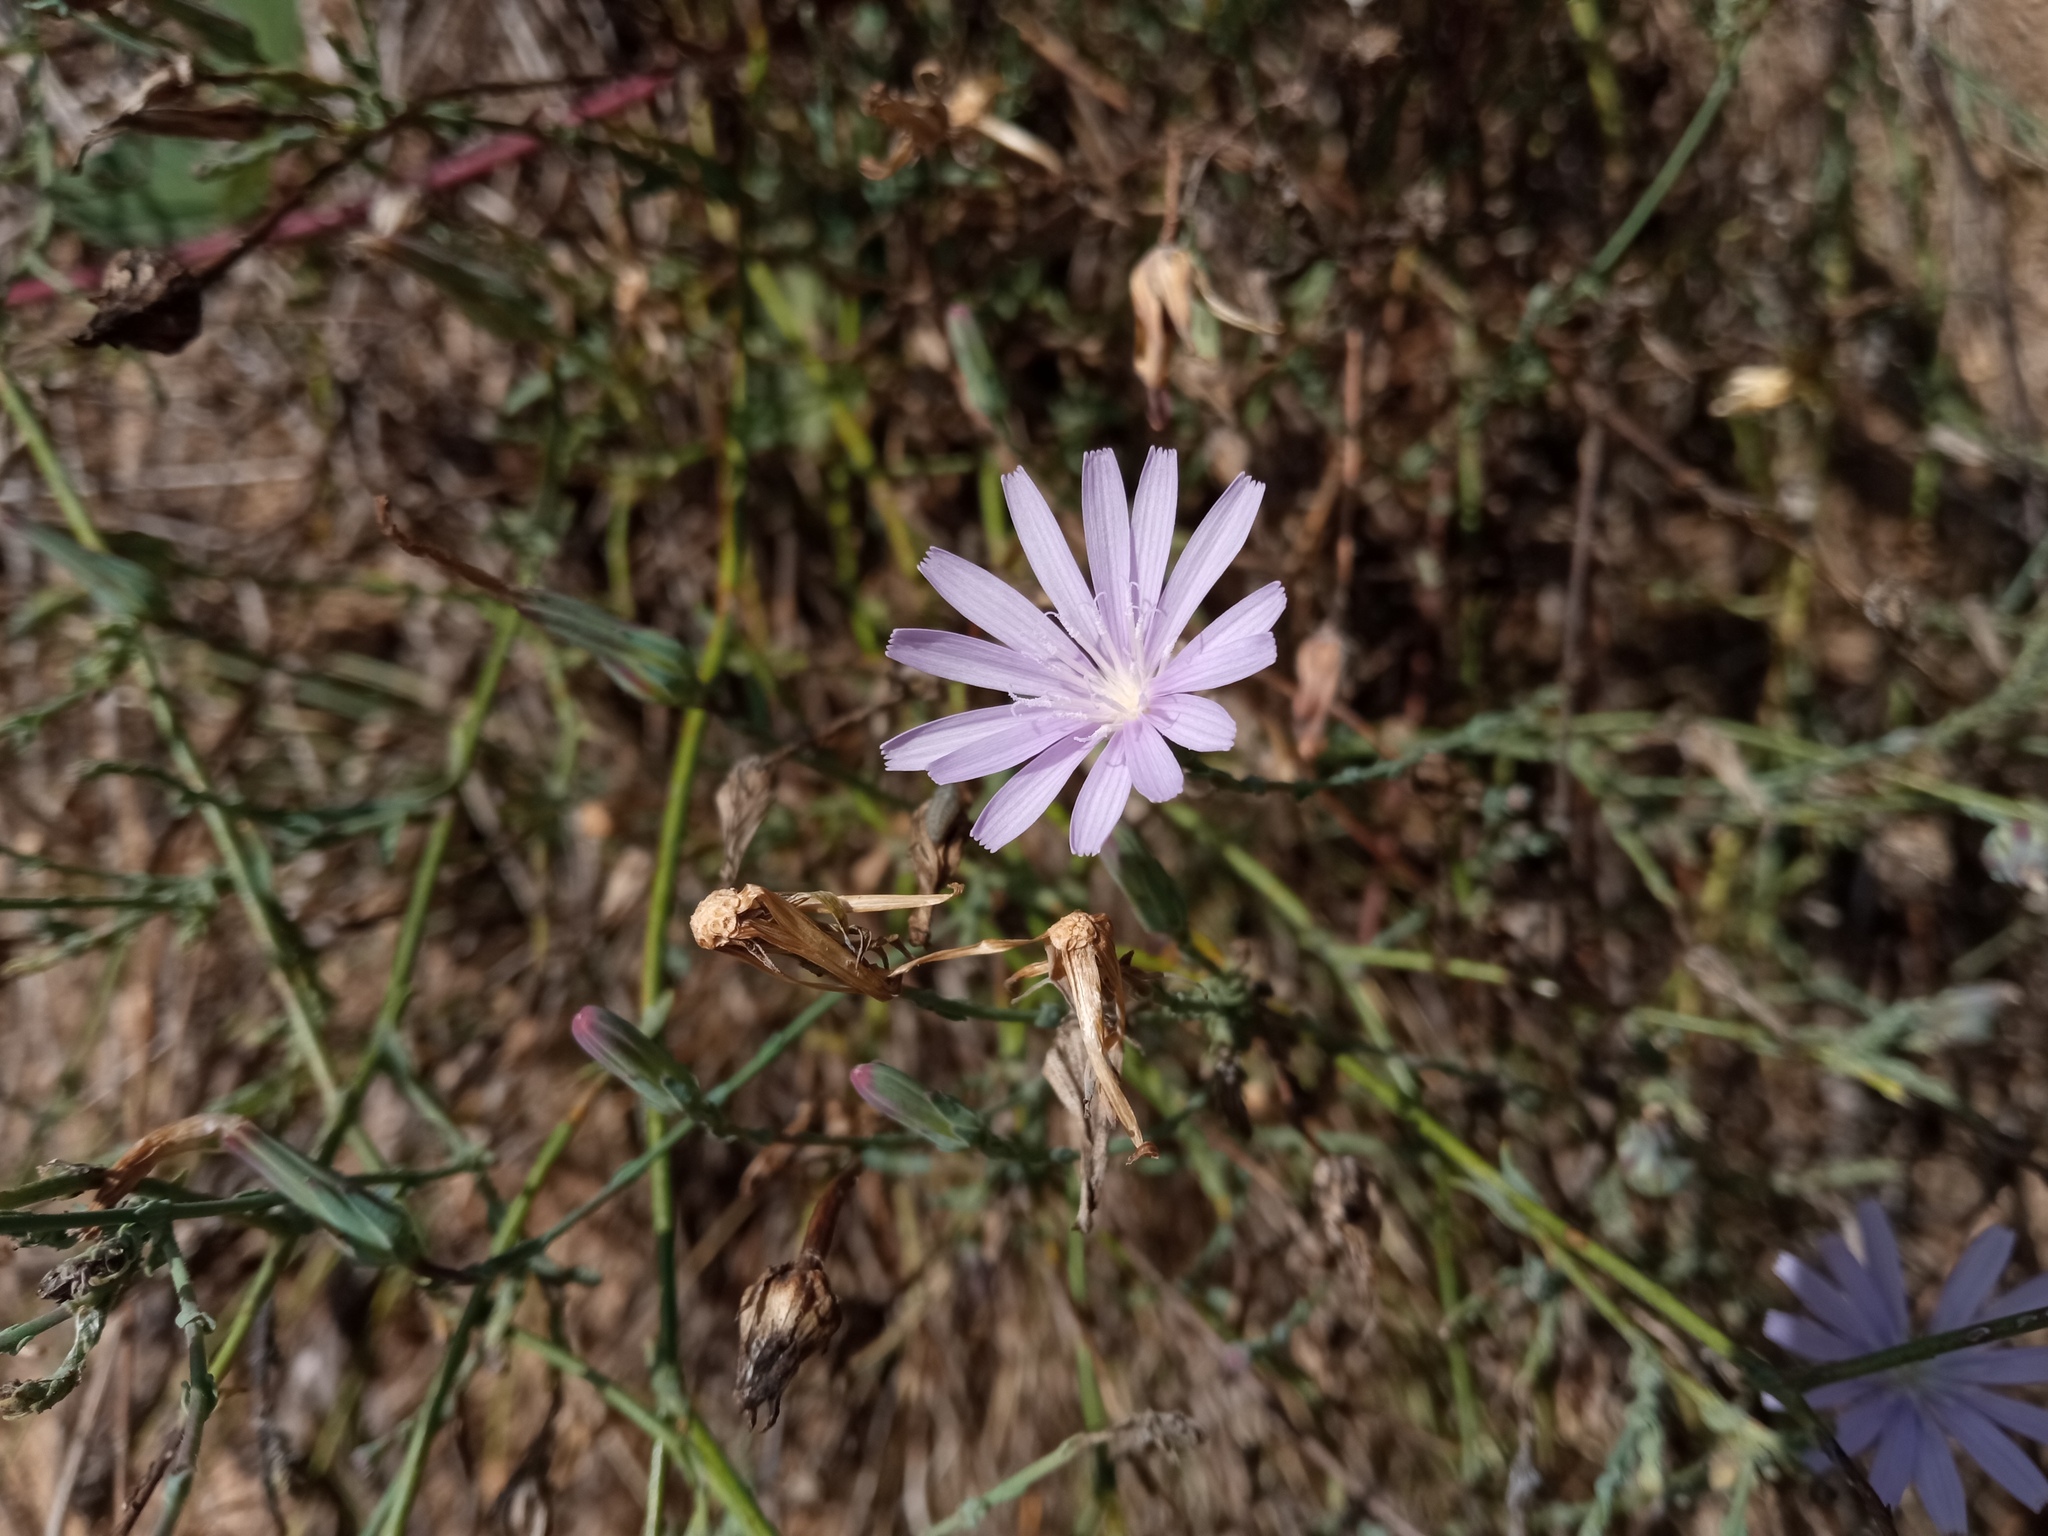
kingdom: Plantae
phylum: Tracheophyta
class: Magnoliopsida
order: Asterales
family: Asteraceae
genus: Lactuca
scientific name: Lactuca tenerrima
